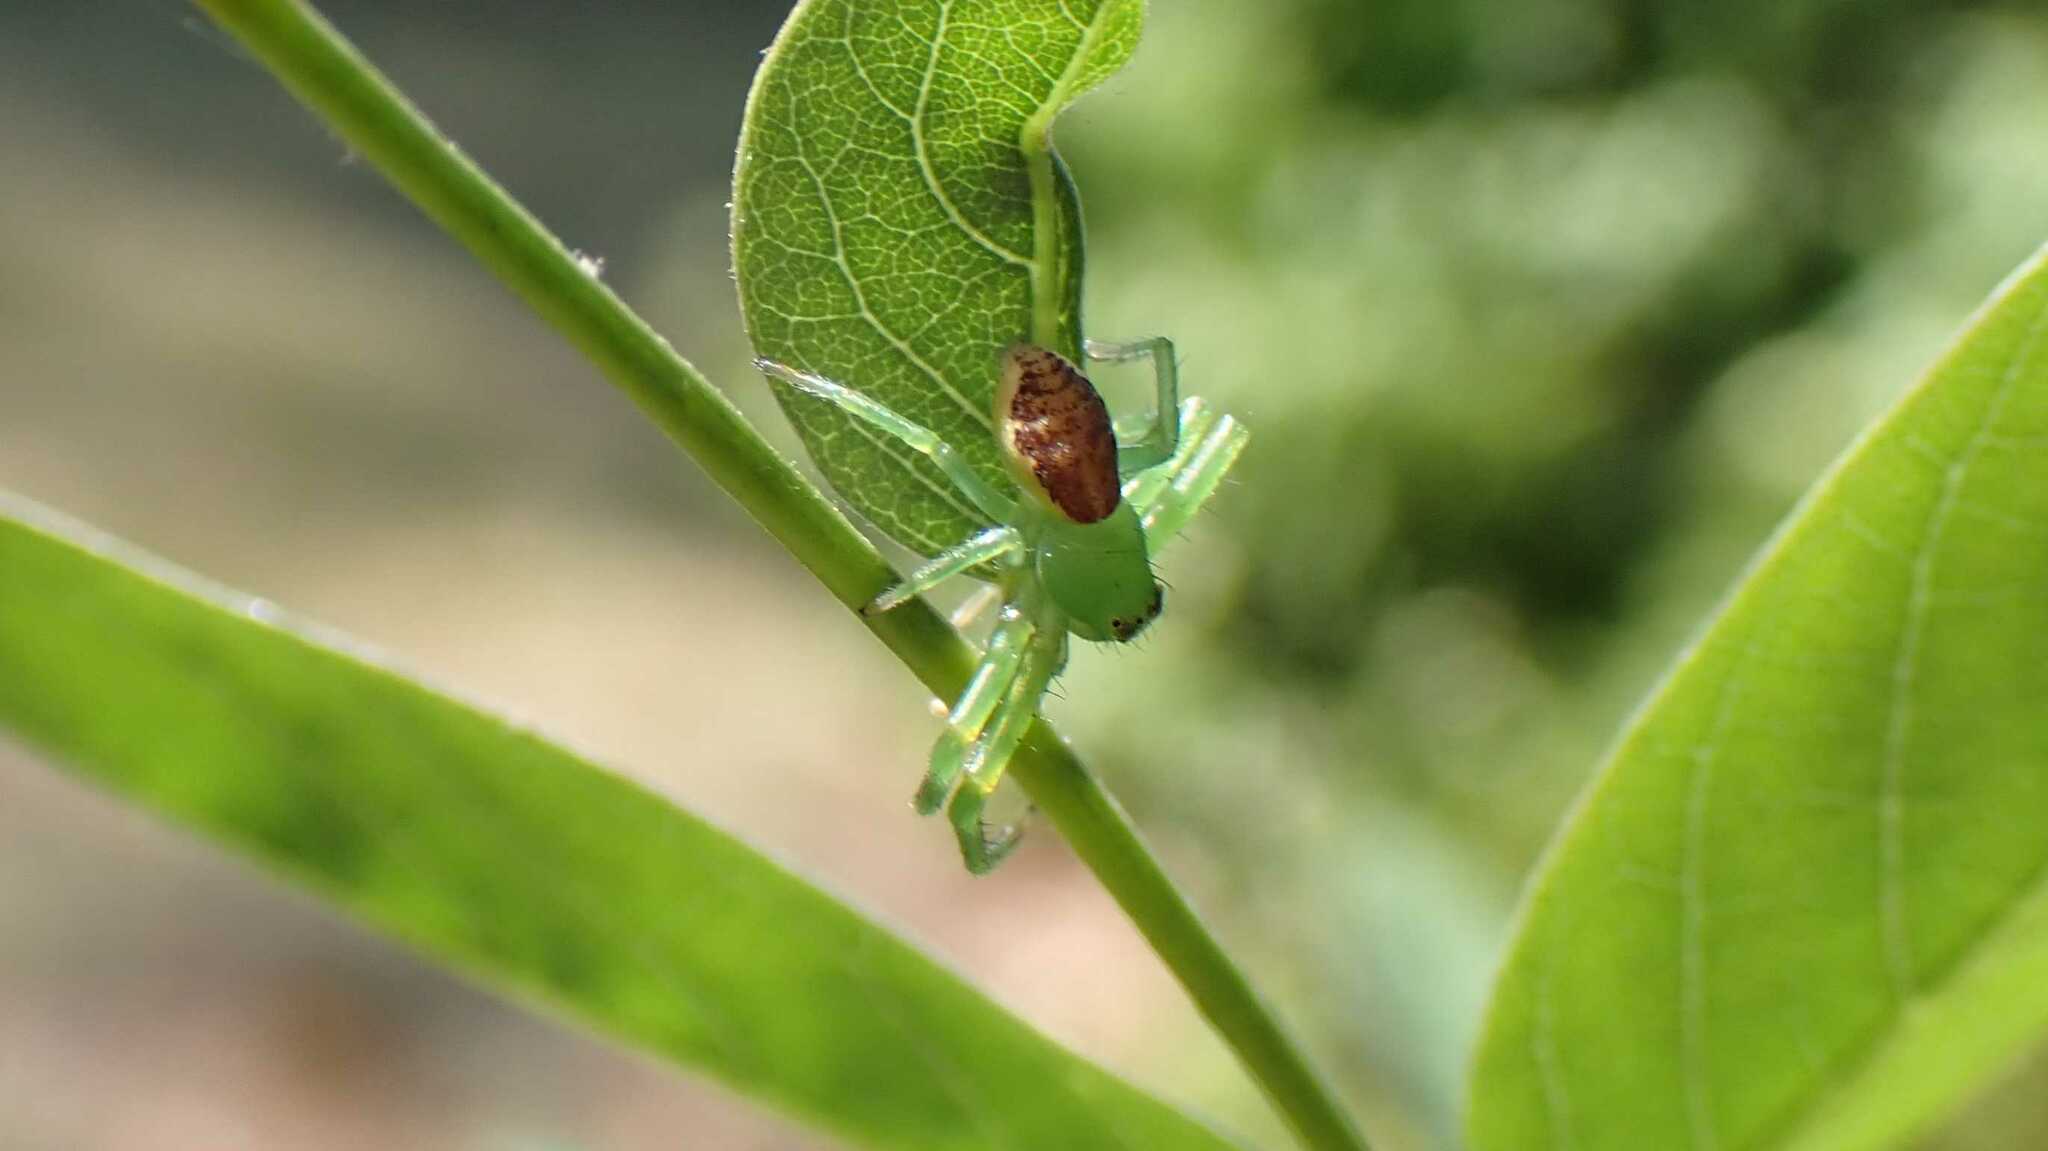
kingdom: Animalia
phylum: Arthropoda
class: Arachnida
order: Araneae
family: Thomisidae
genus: Diaea
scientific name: Diaea dorsata
